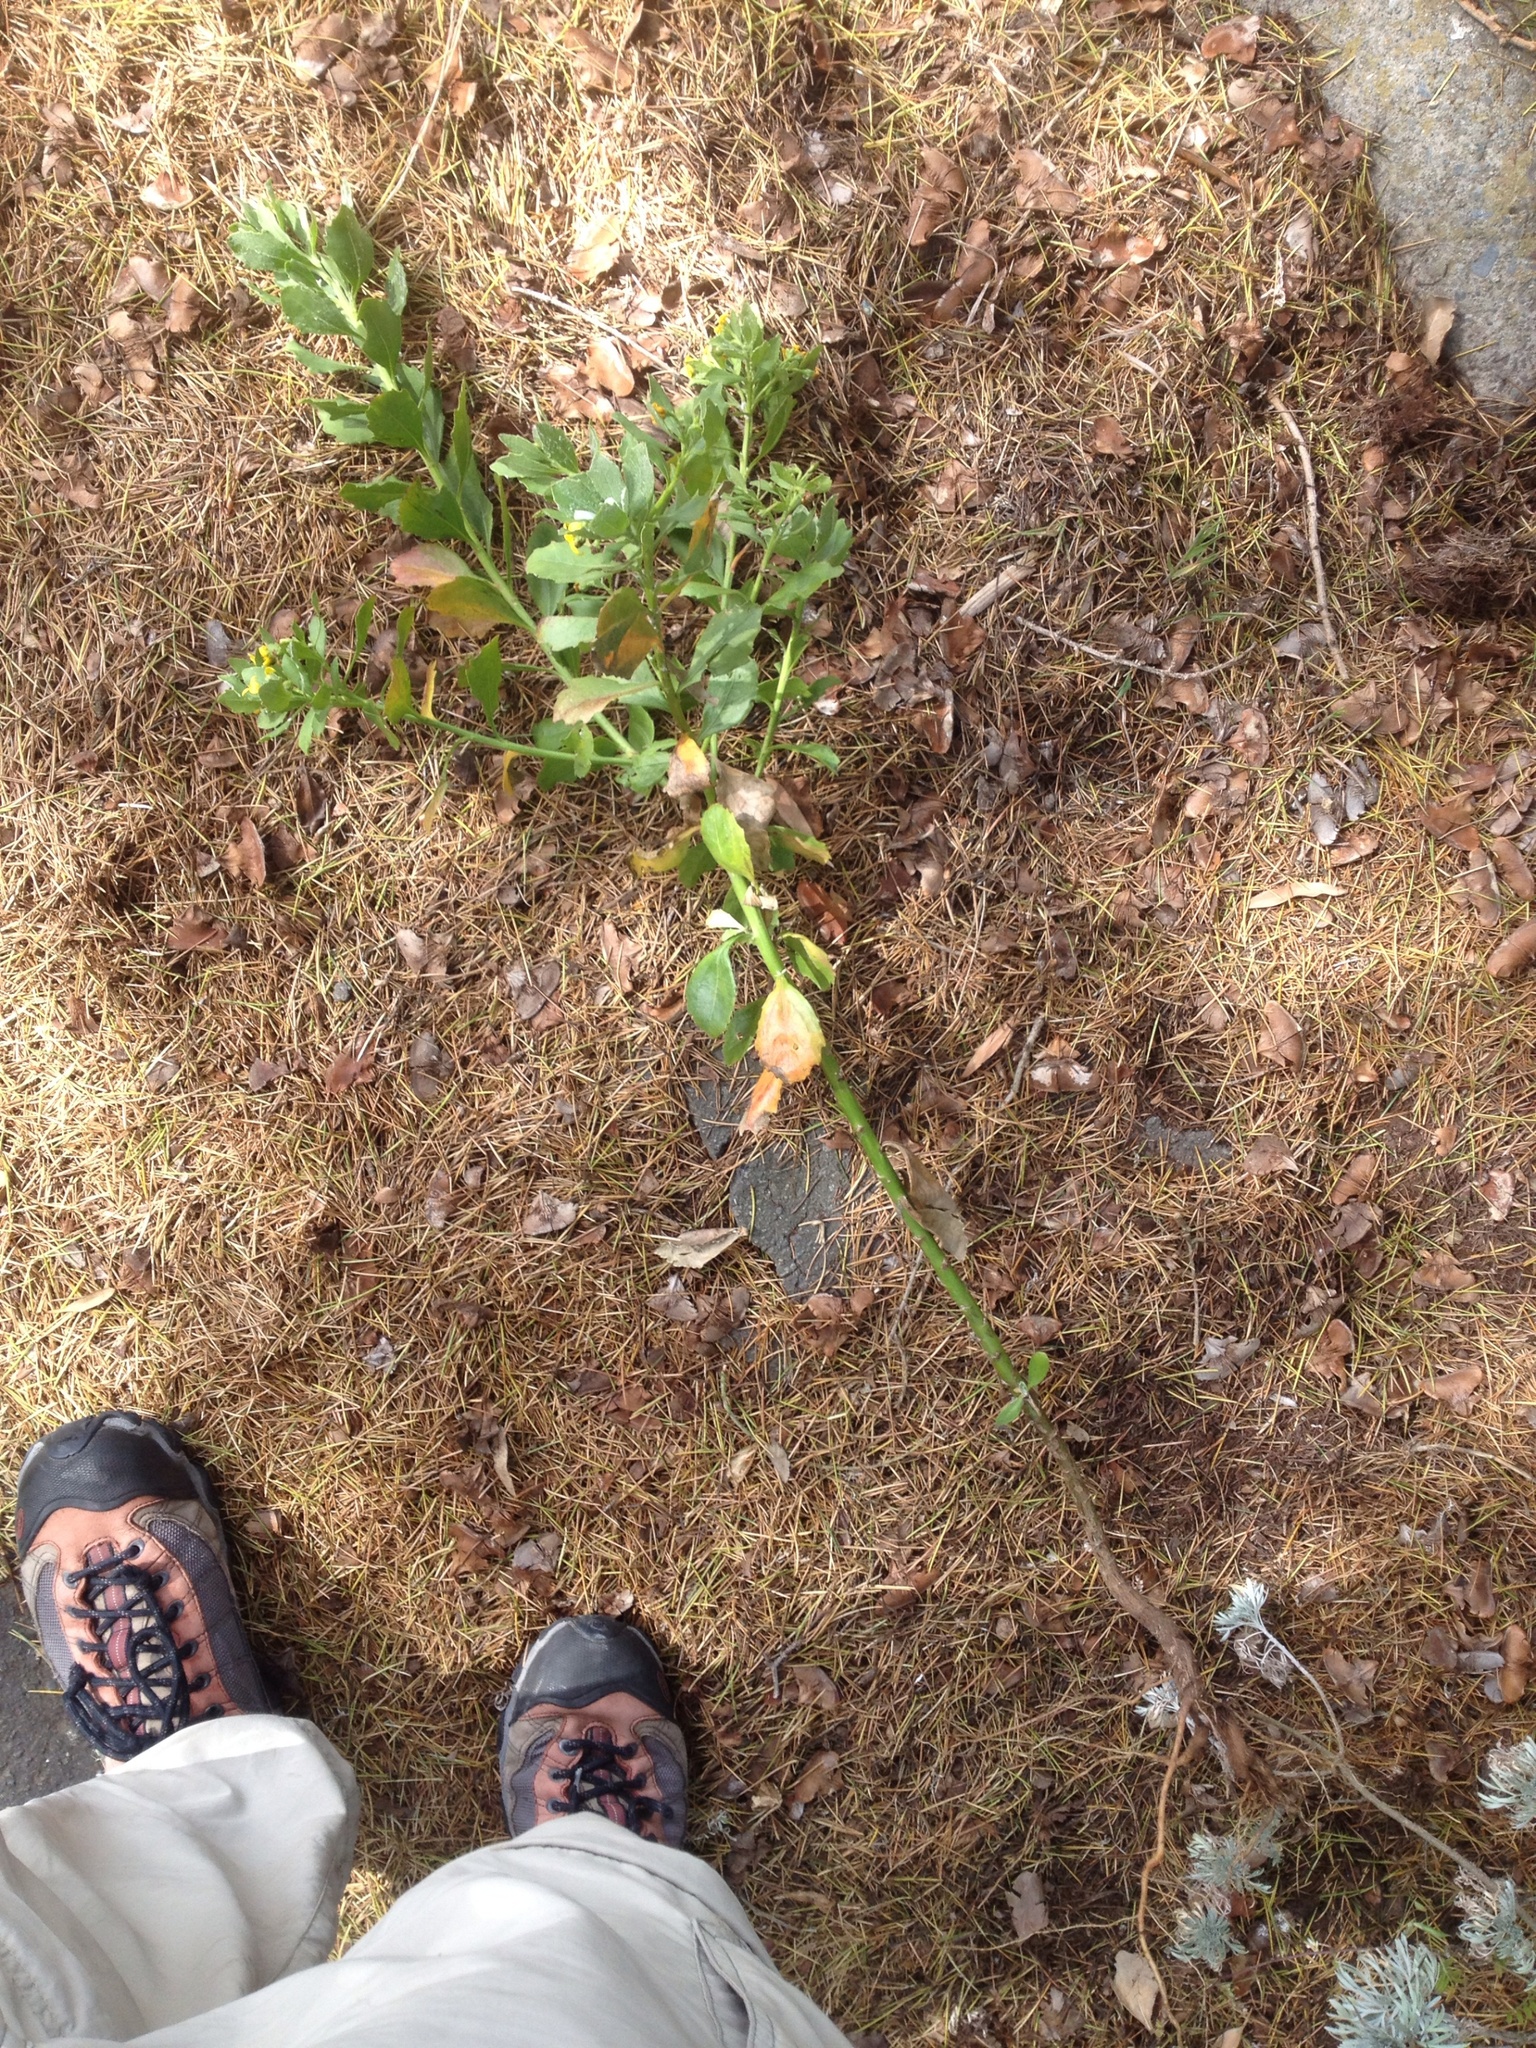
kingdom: Plantae
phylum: Tracheophyta
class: Magnoliopsida
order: Asterales
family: Asteraceae
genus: Osteospermum
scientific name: Osteospermum moniliferum
